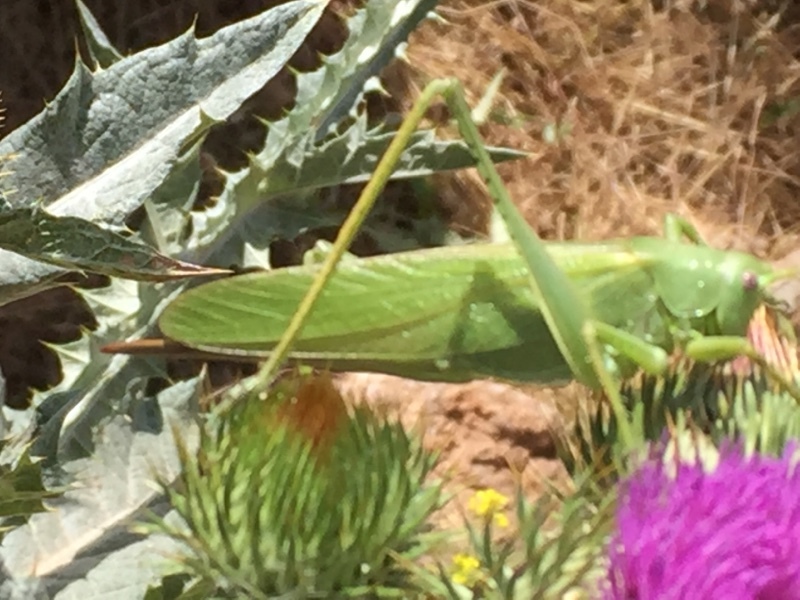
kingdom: Animalia
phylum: Arthropoda
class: Insecta
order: Orthoptera
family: Tettigoniidae
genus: Tettigonia
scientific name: Tettigonia caudata
